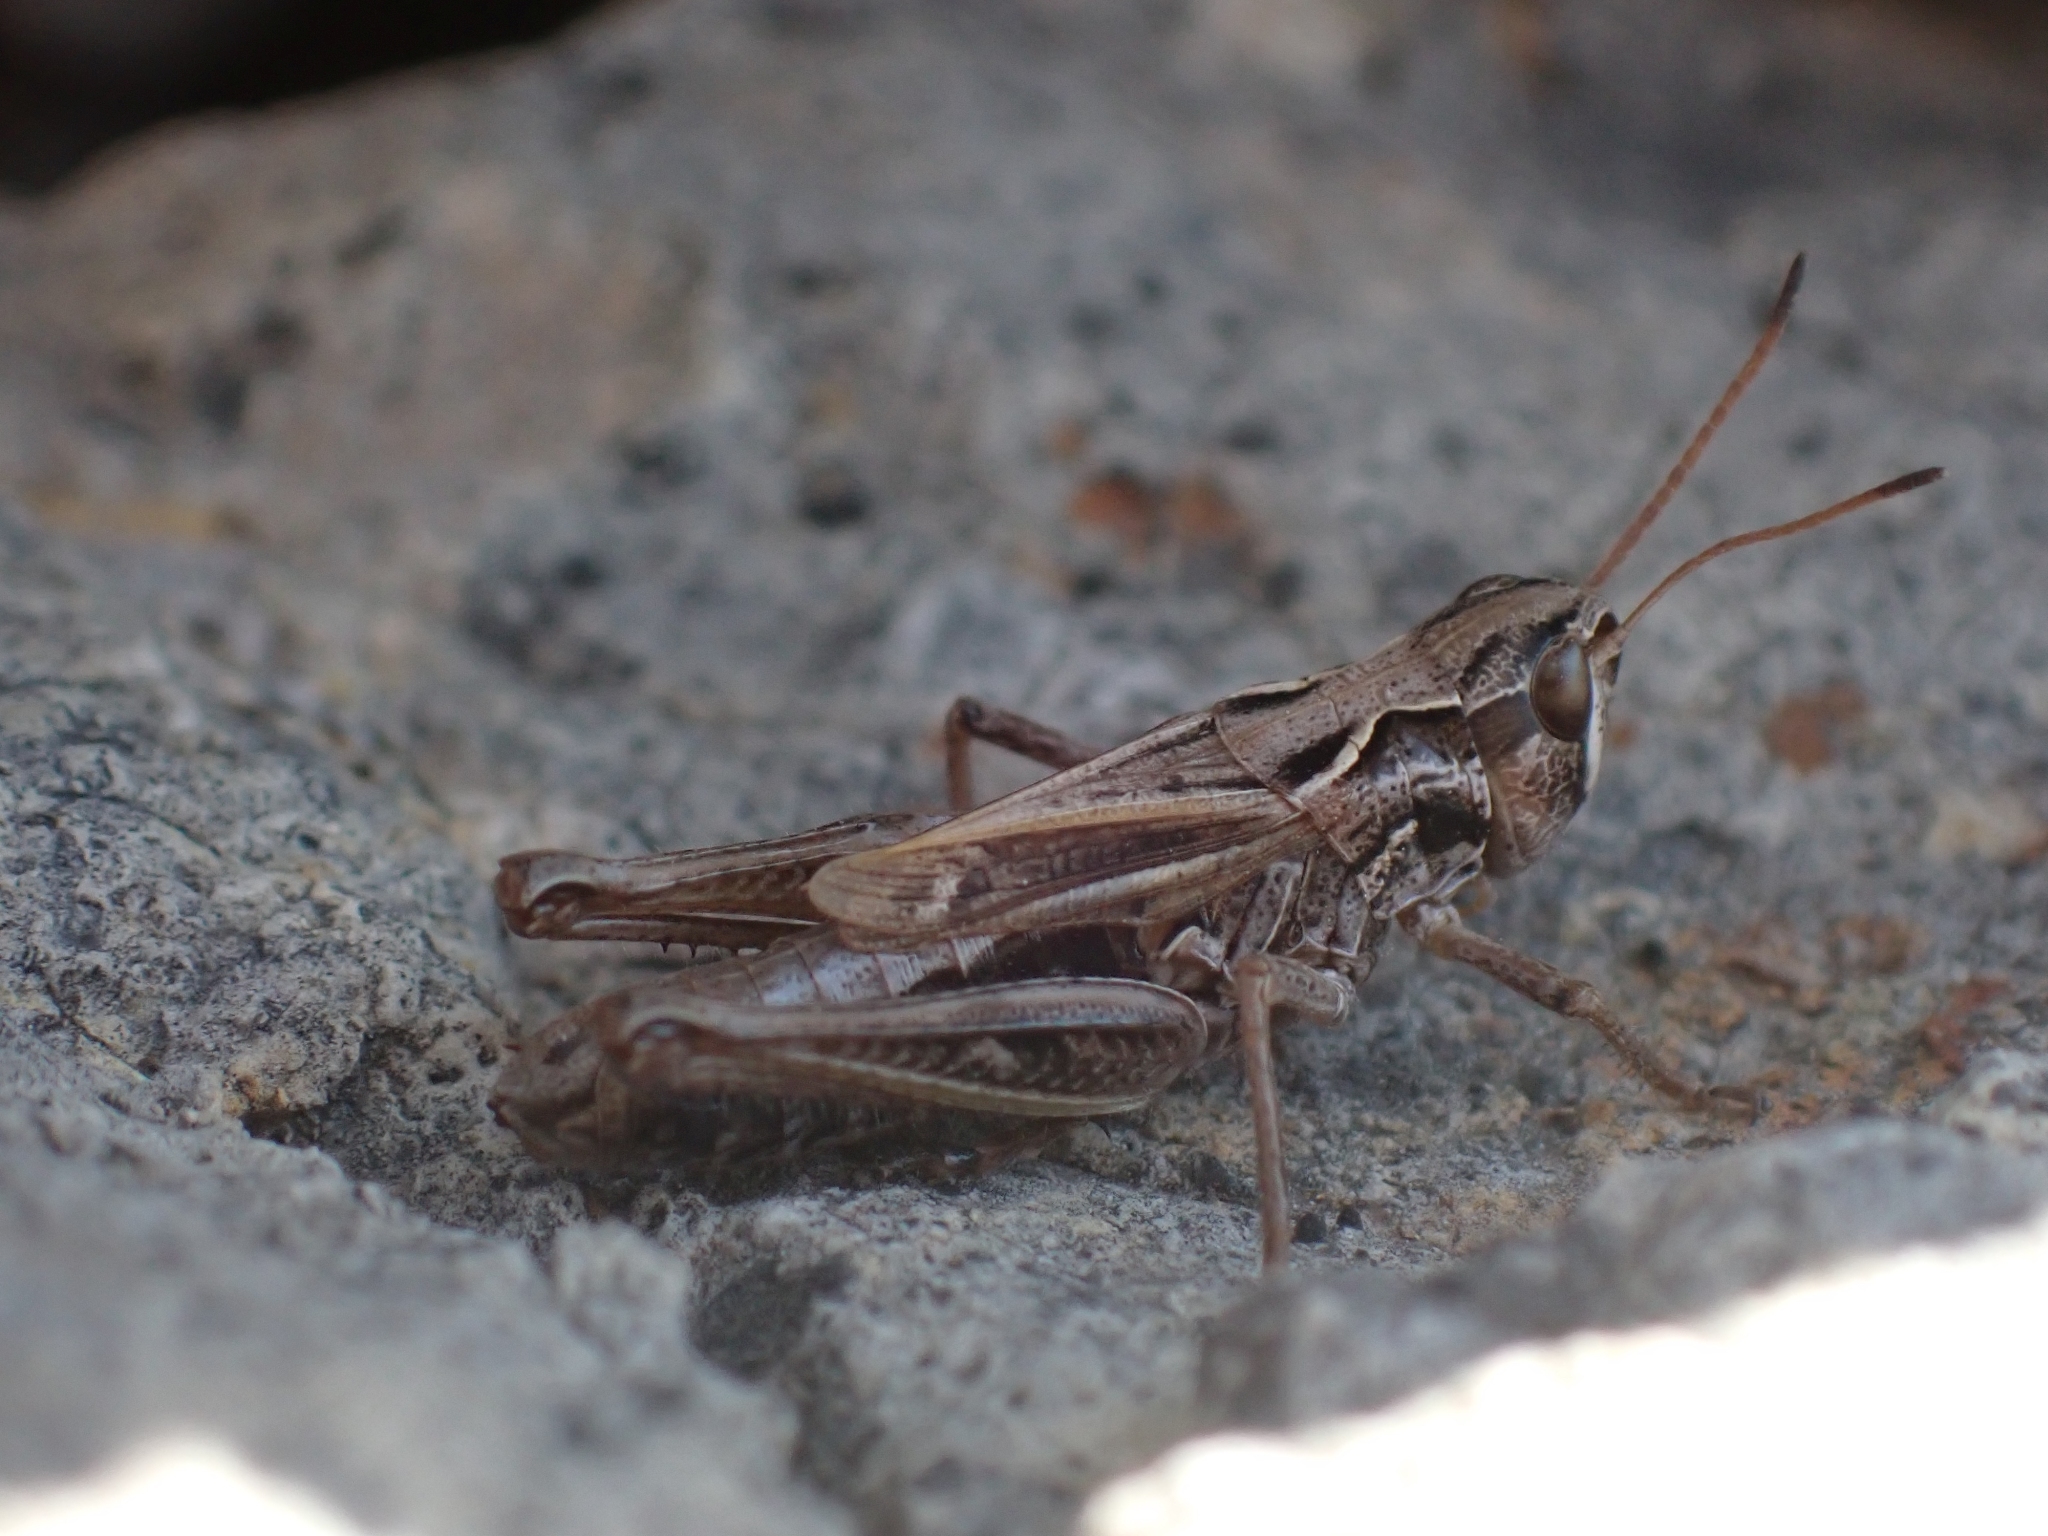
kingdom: Animalia
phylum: Arthropoda
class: Insecta
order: Orthoptera
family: Acrididae
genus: Aeropedellus
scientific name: Aeropedellus clavatus
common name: Clubhorned grasshopper
